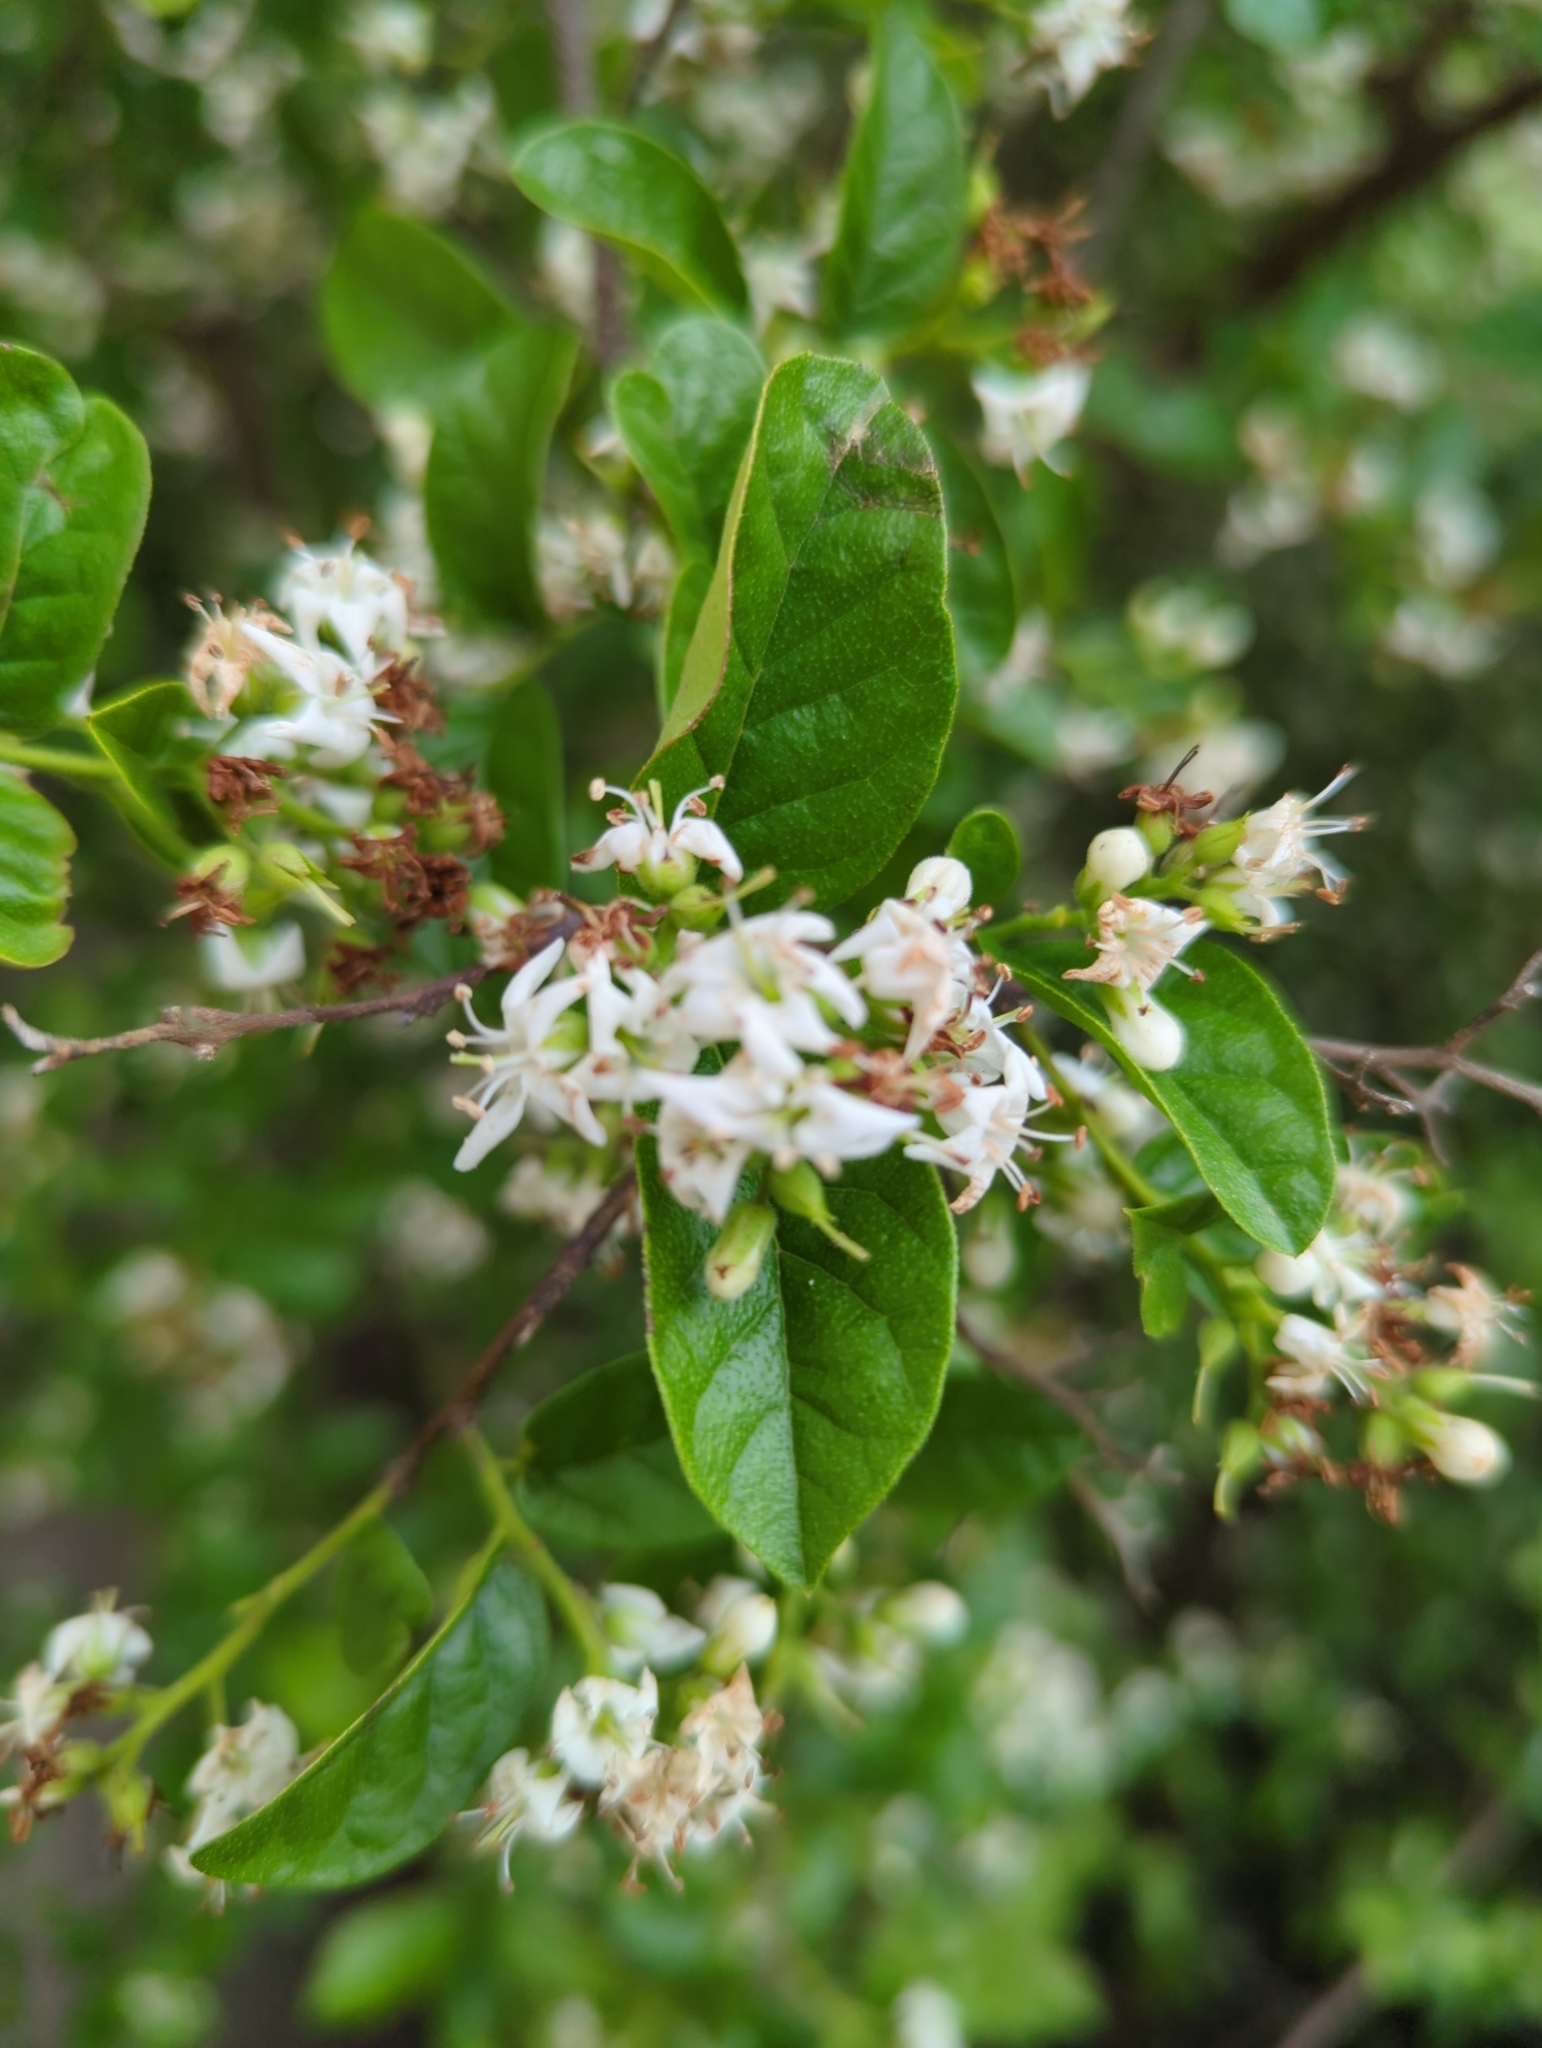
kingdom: Plantae
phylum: Tracheophyta
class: Magnoliopsida
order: Boraginales
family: Ehretiaceae
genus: Ehretia
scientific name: Ehretia anacua
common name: Sugarberry
